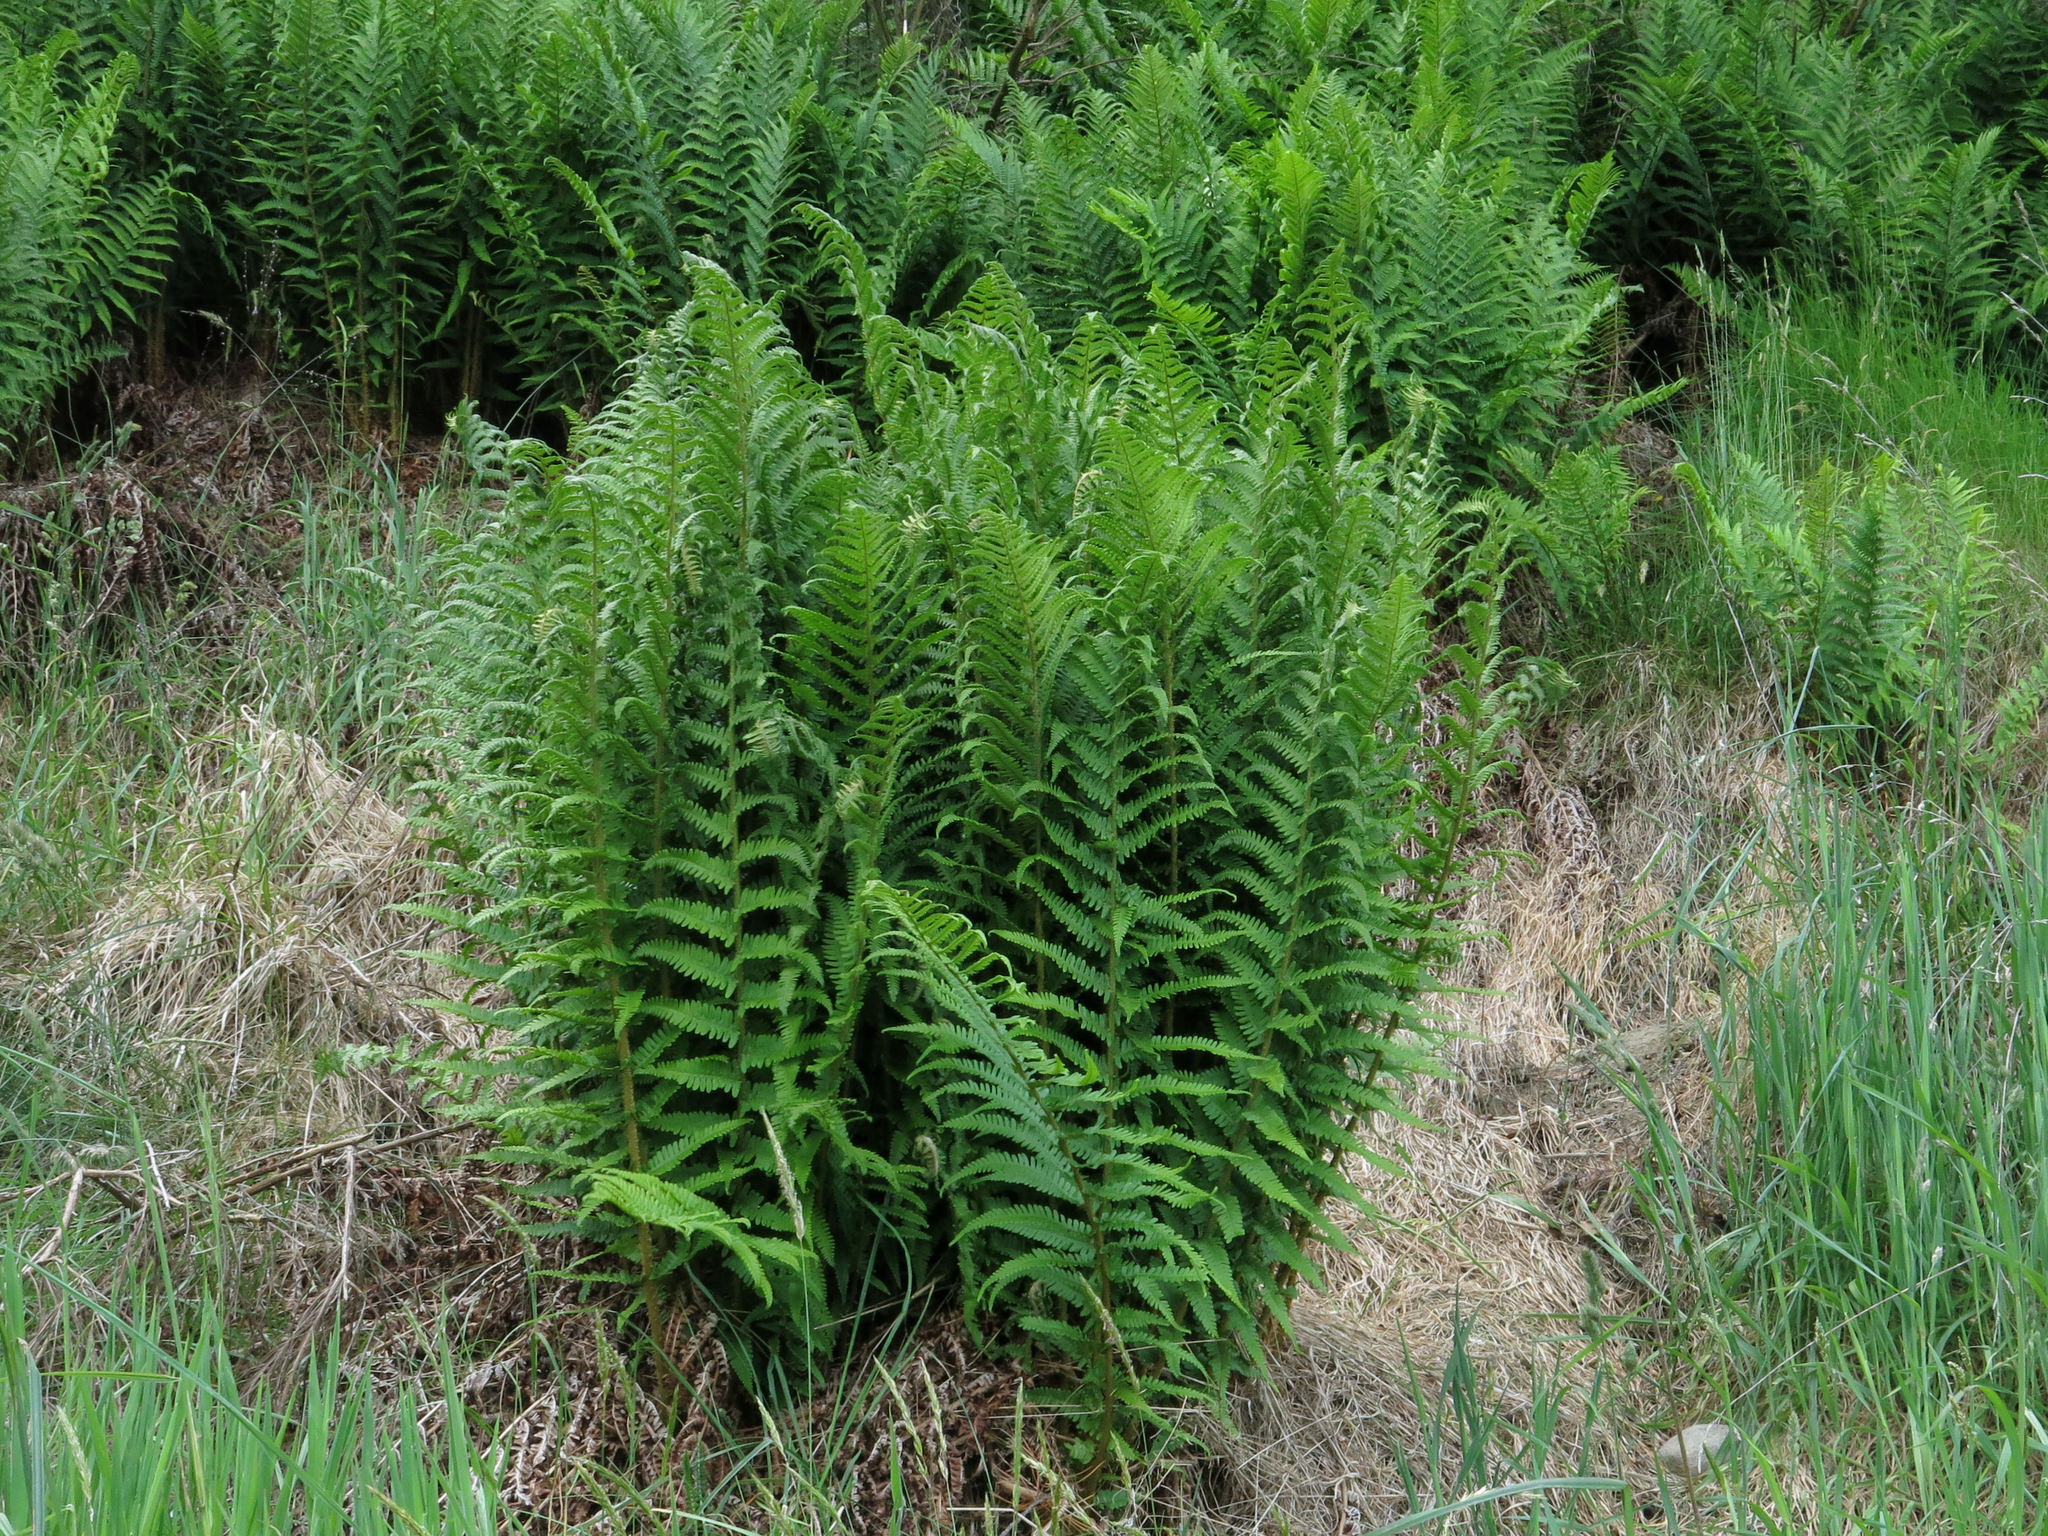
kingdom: Plantae
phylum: Tracheophyta
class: Polypodiopsida
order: Polypodiales
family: Dryopteridaceae
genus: Dryopteris
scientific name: Dryopteris filix-mas
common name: Male fern
